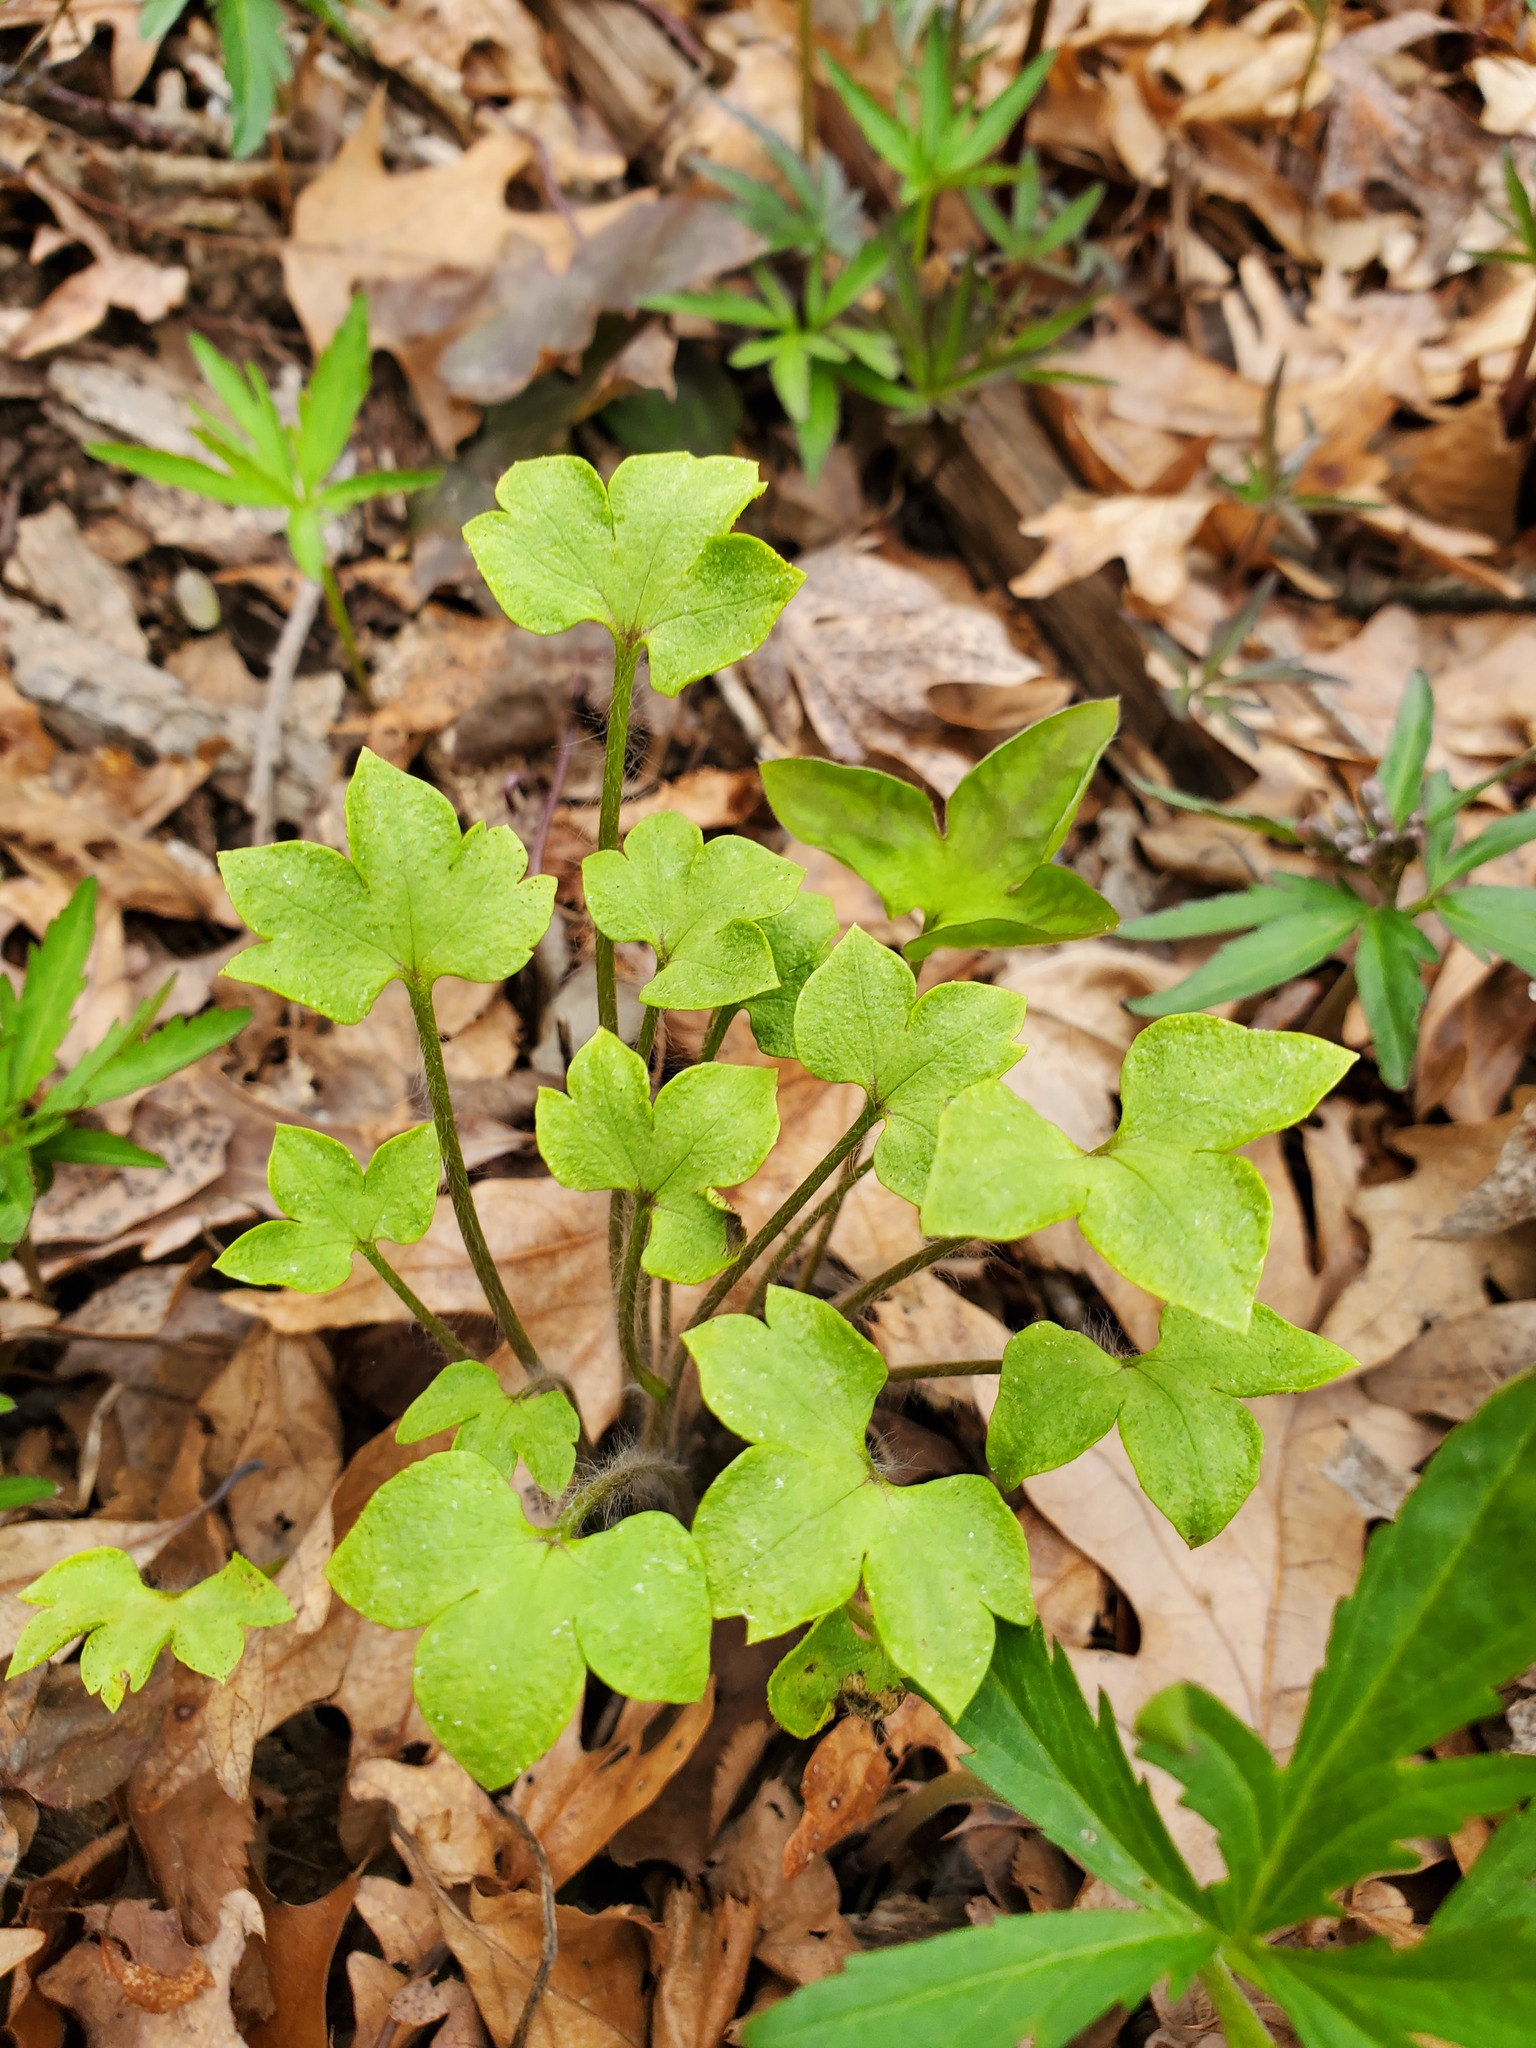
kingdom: Plantae
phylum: Tracheophyta
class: Magnoliopsida
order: Ranunculales
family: Ranunculaceae
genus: Hepatica
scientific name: Hepatica acutiloba
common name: Sharp-lobed hepatica
